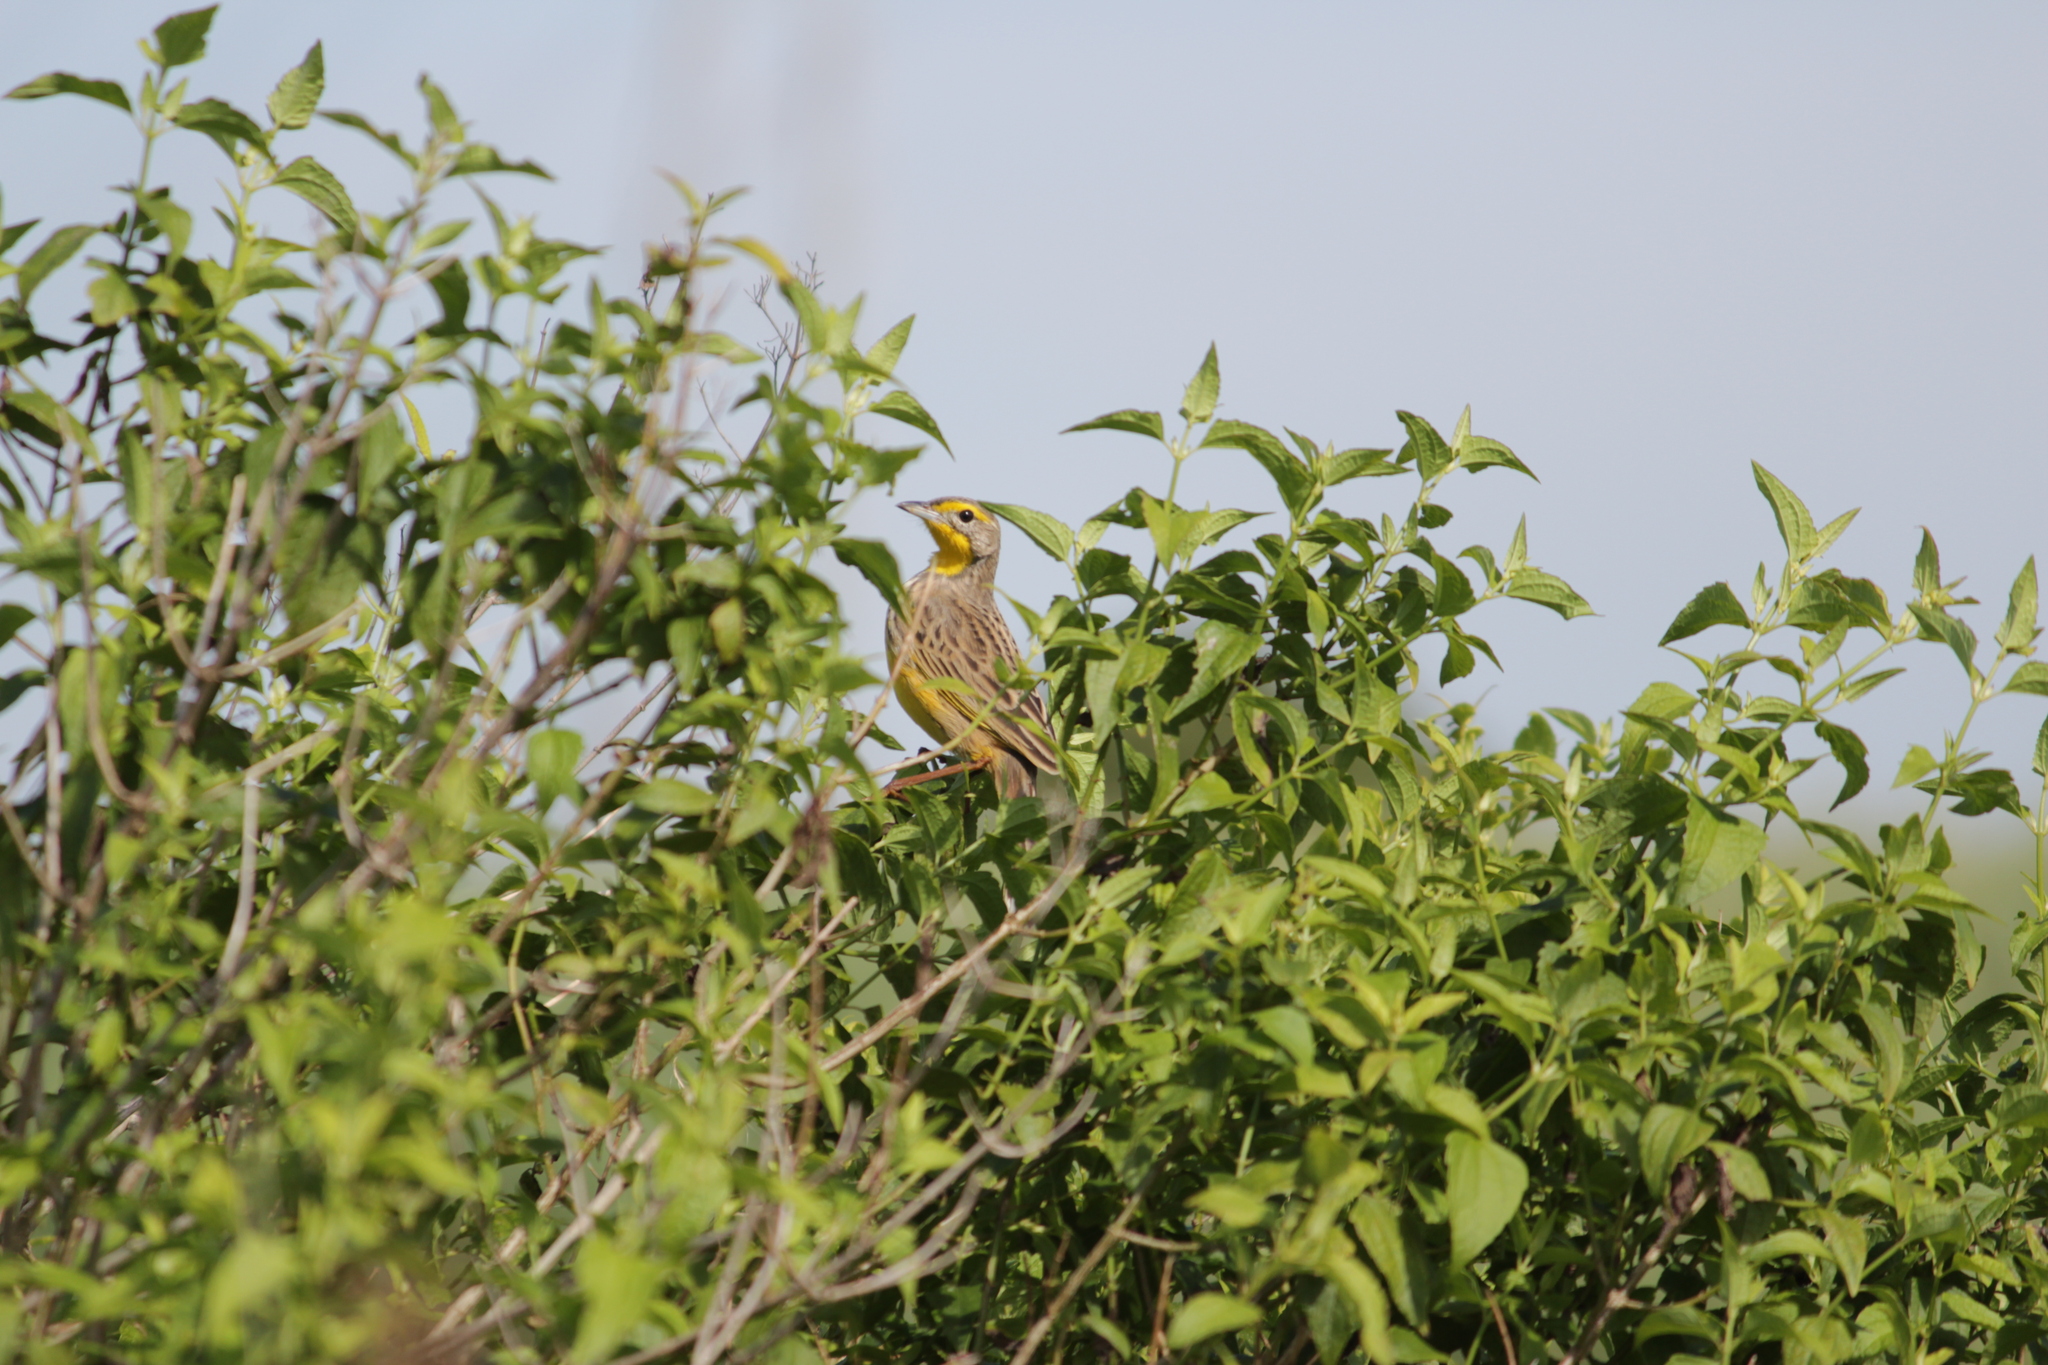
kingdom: Animalia
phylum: Chordata
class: Aves
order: Passeriformes
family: Motacillidae
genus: Macronyx
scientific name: Macronyx croceus
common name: Yellow-throated longclaw
